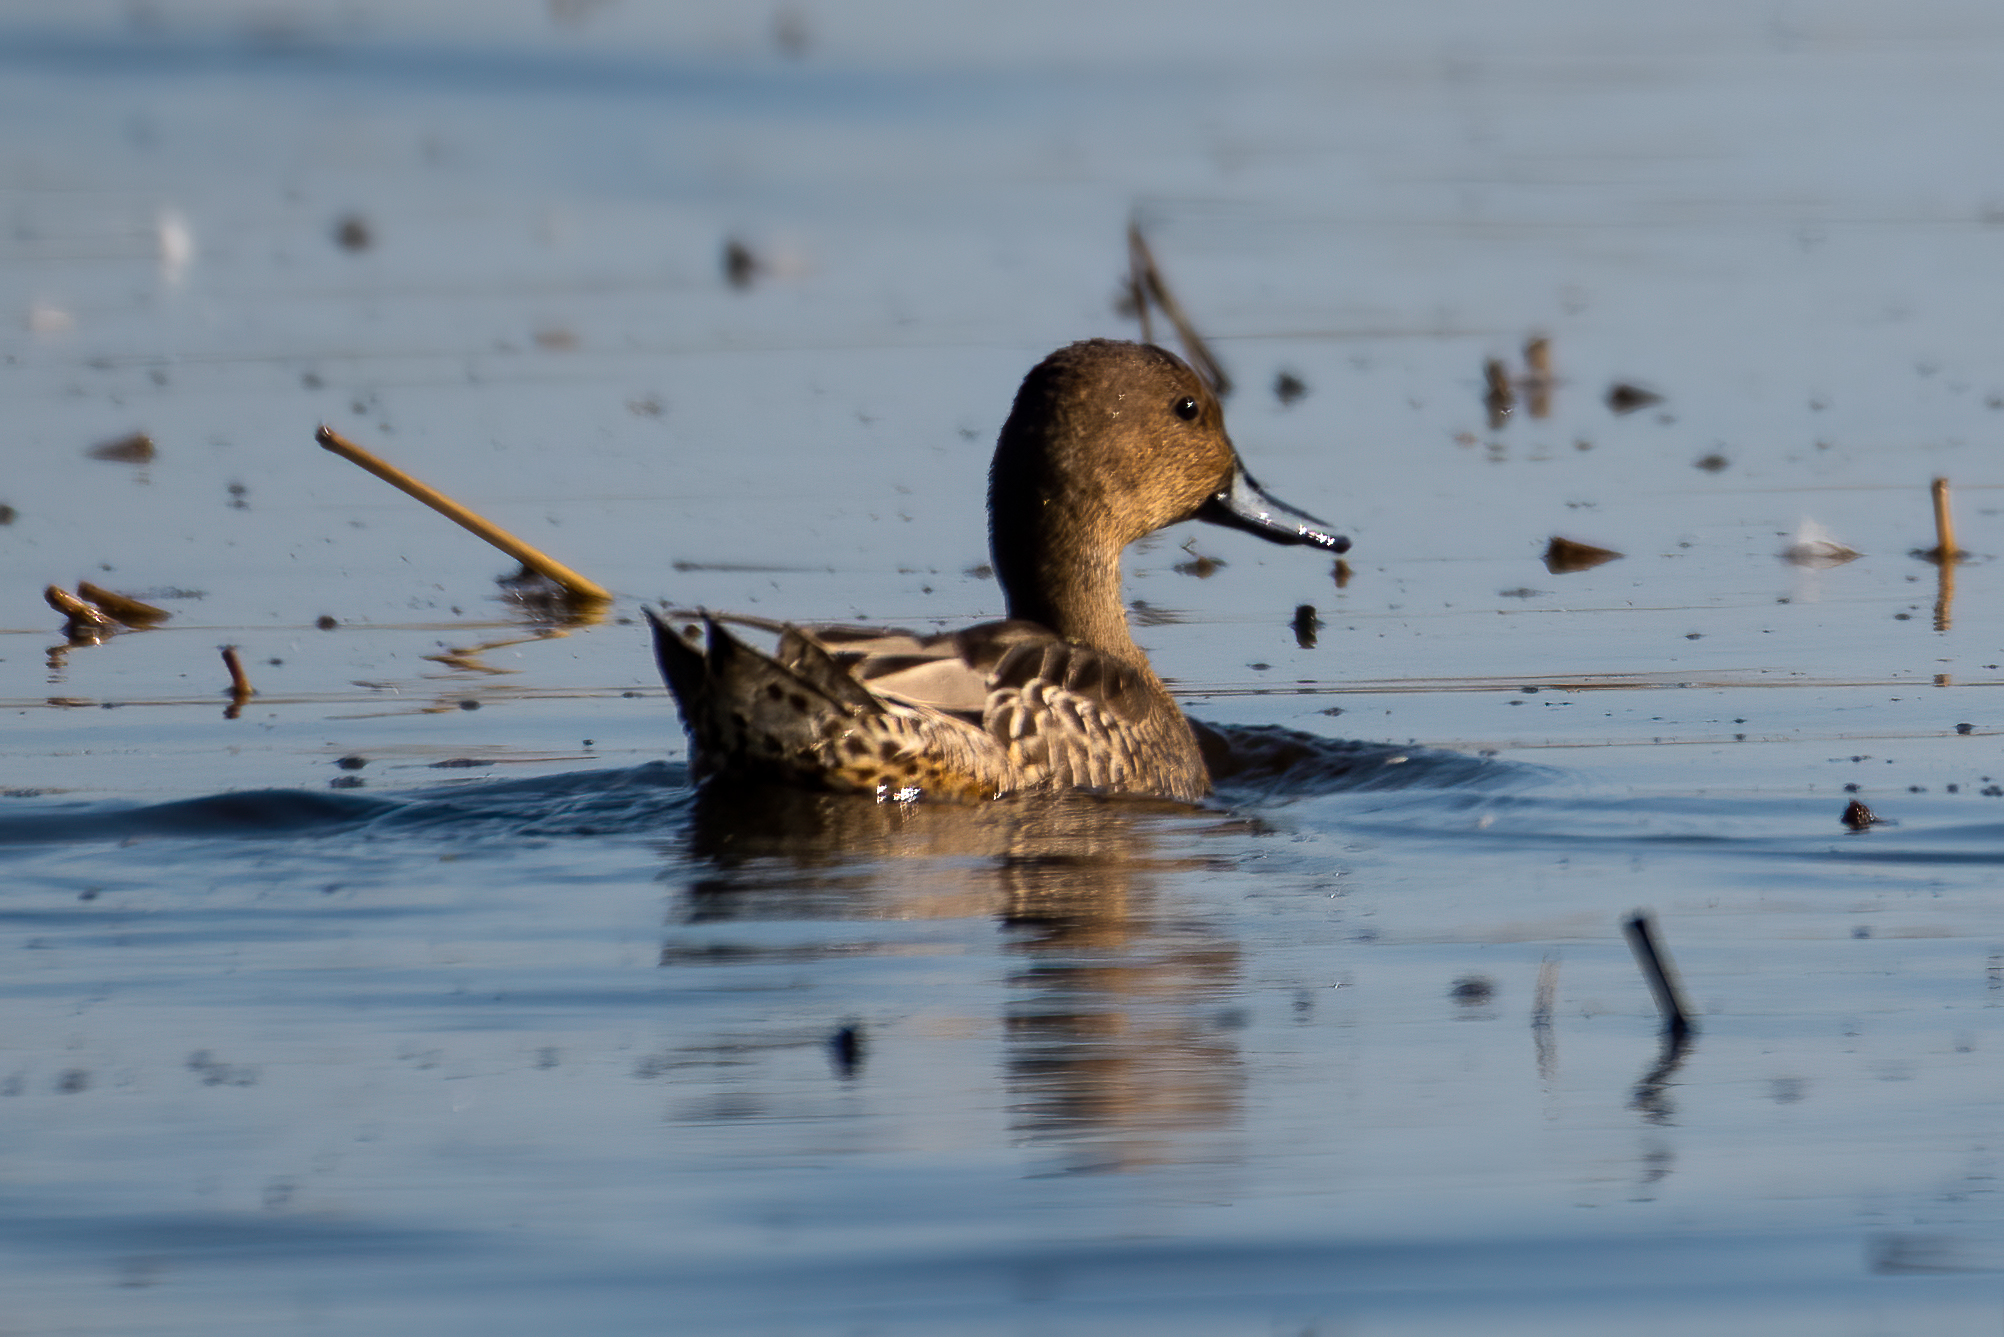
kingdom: Animalia
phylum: Chordata
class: Aves
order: Anseriformes
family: Anatidae
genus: Anas
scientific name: Anas acuta
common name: Northern pintail
